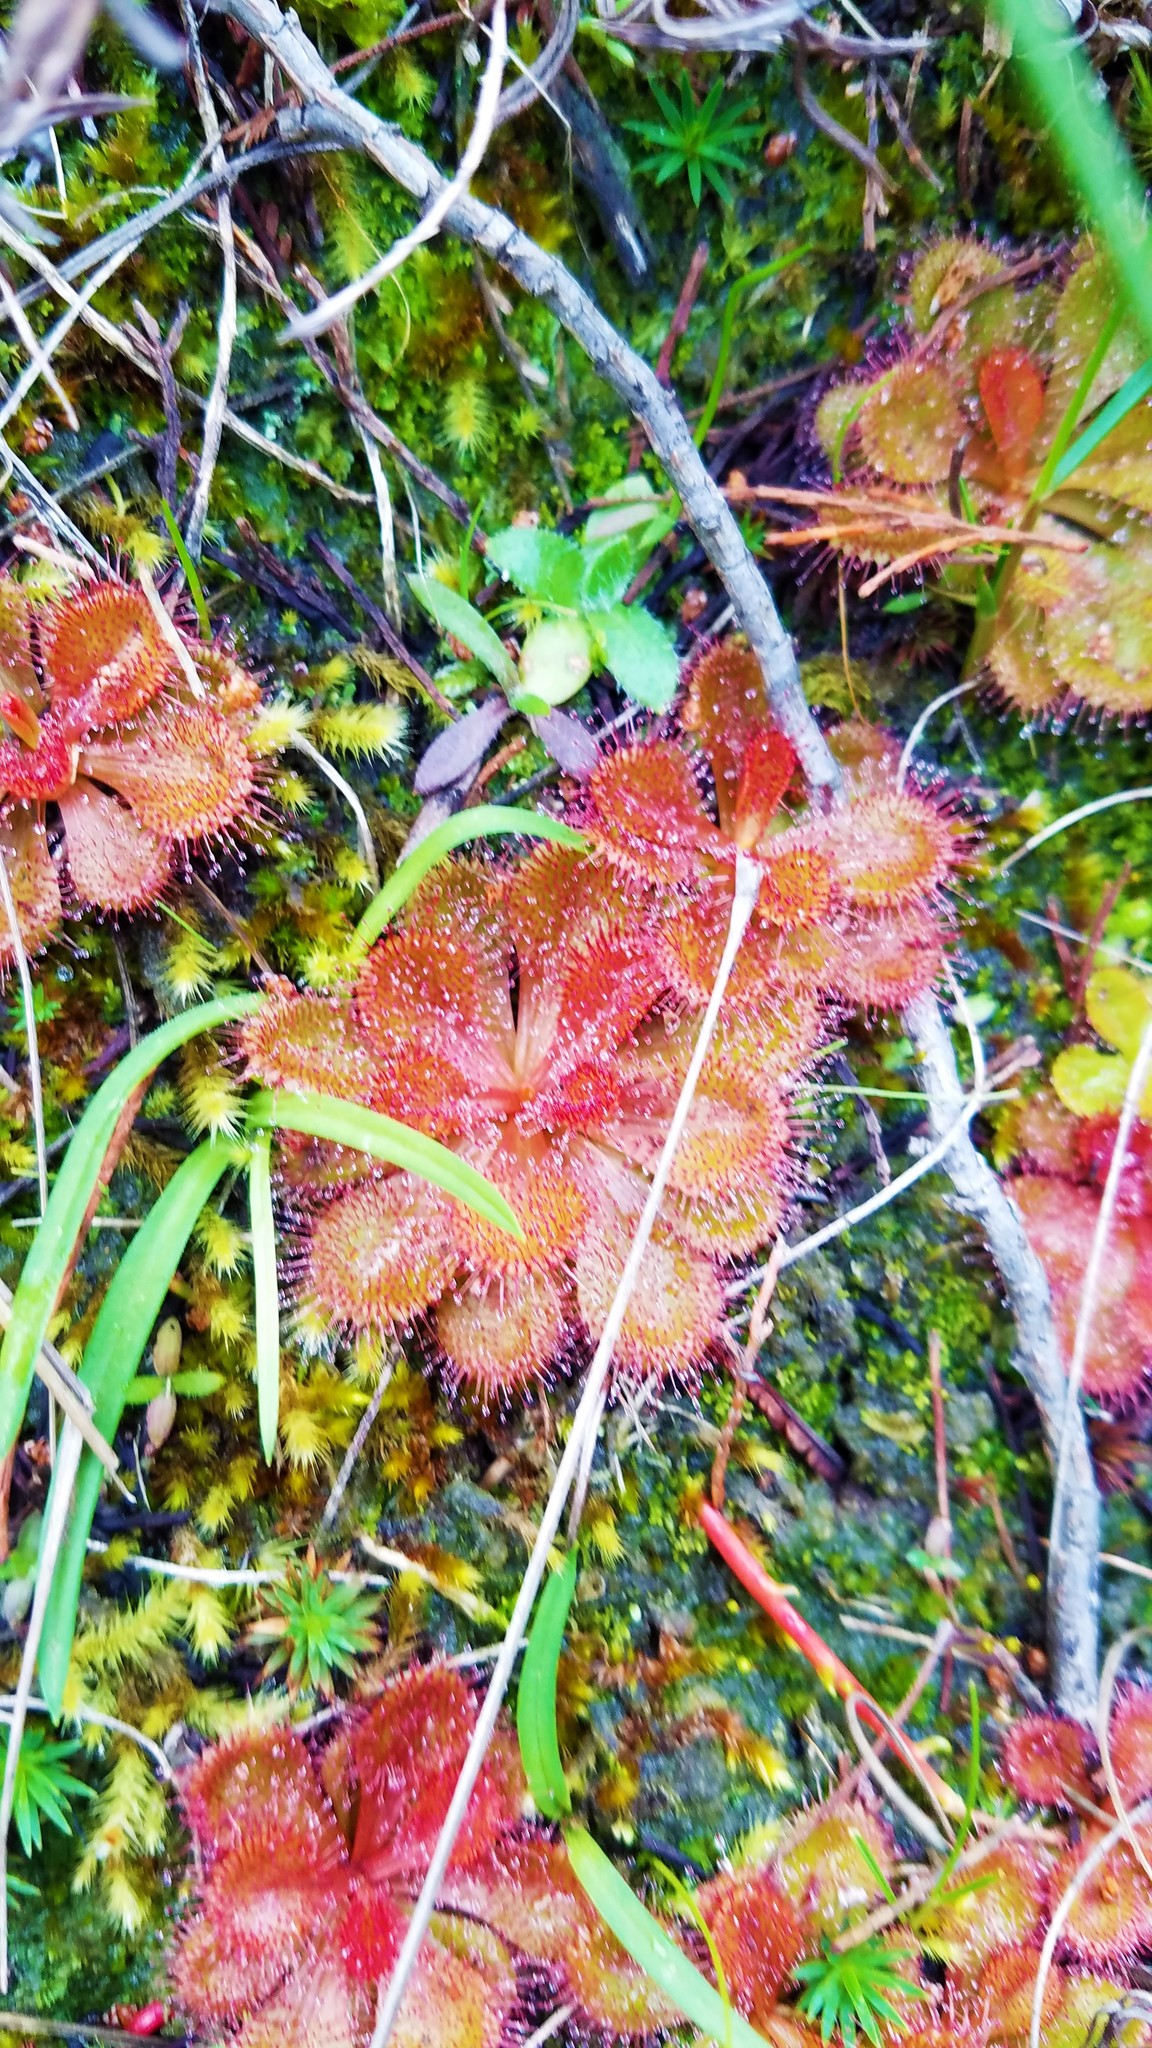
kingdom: Plantae
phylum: Tracheophyta
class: Magnoliopsida
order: Caryophyllales
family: Droseraceae
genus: Drosera
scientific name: Drosera aberrans
